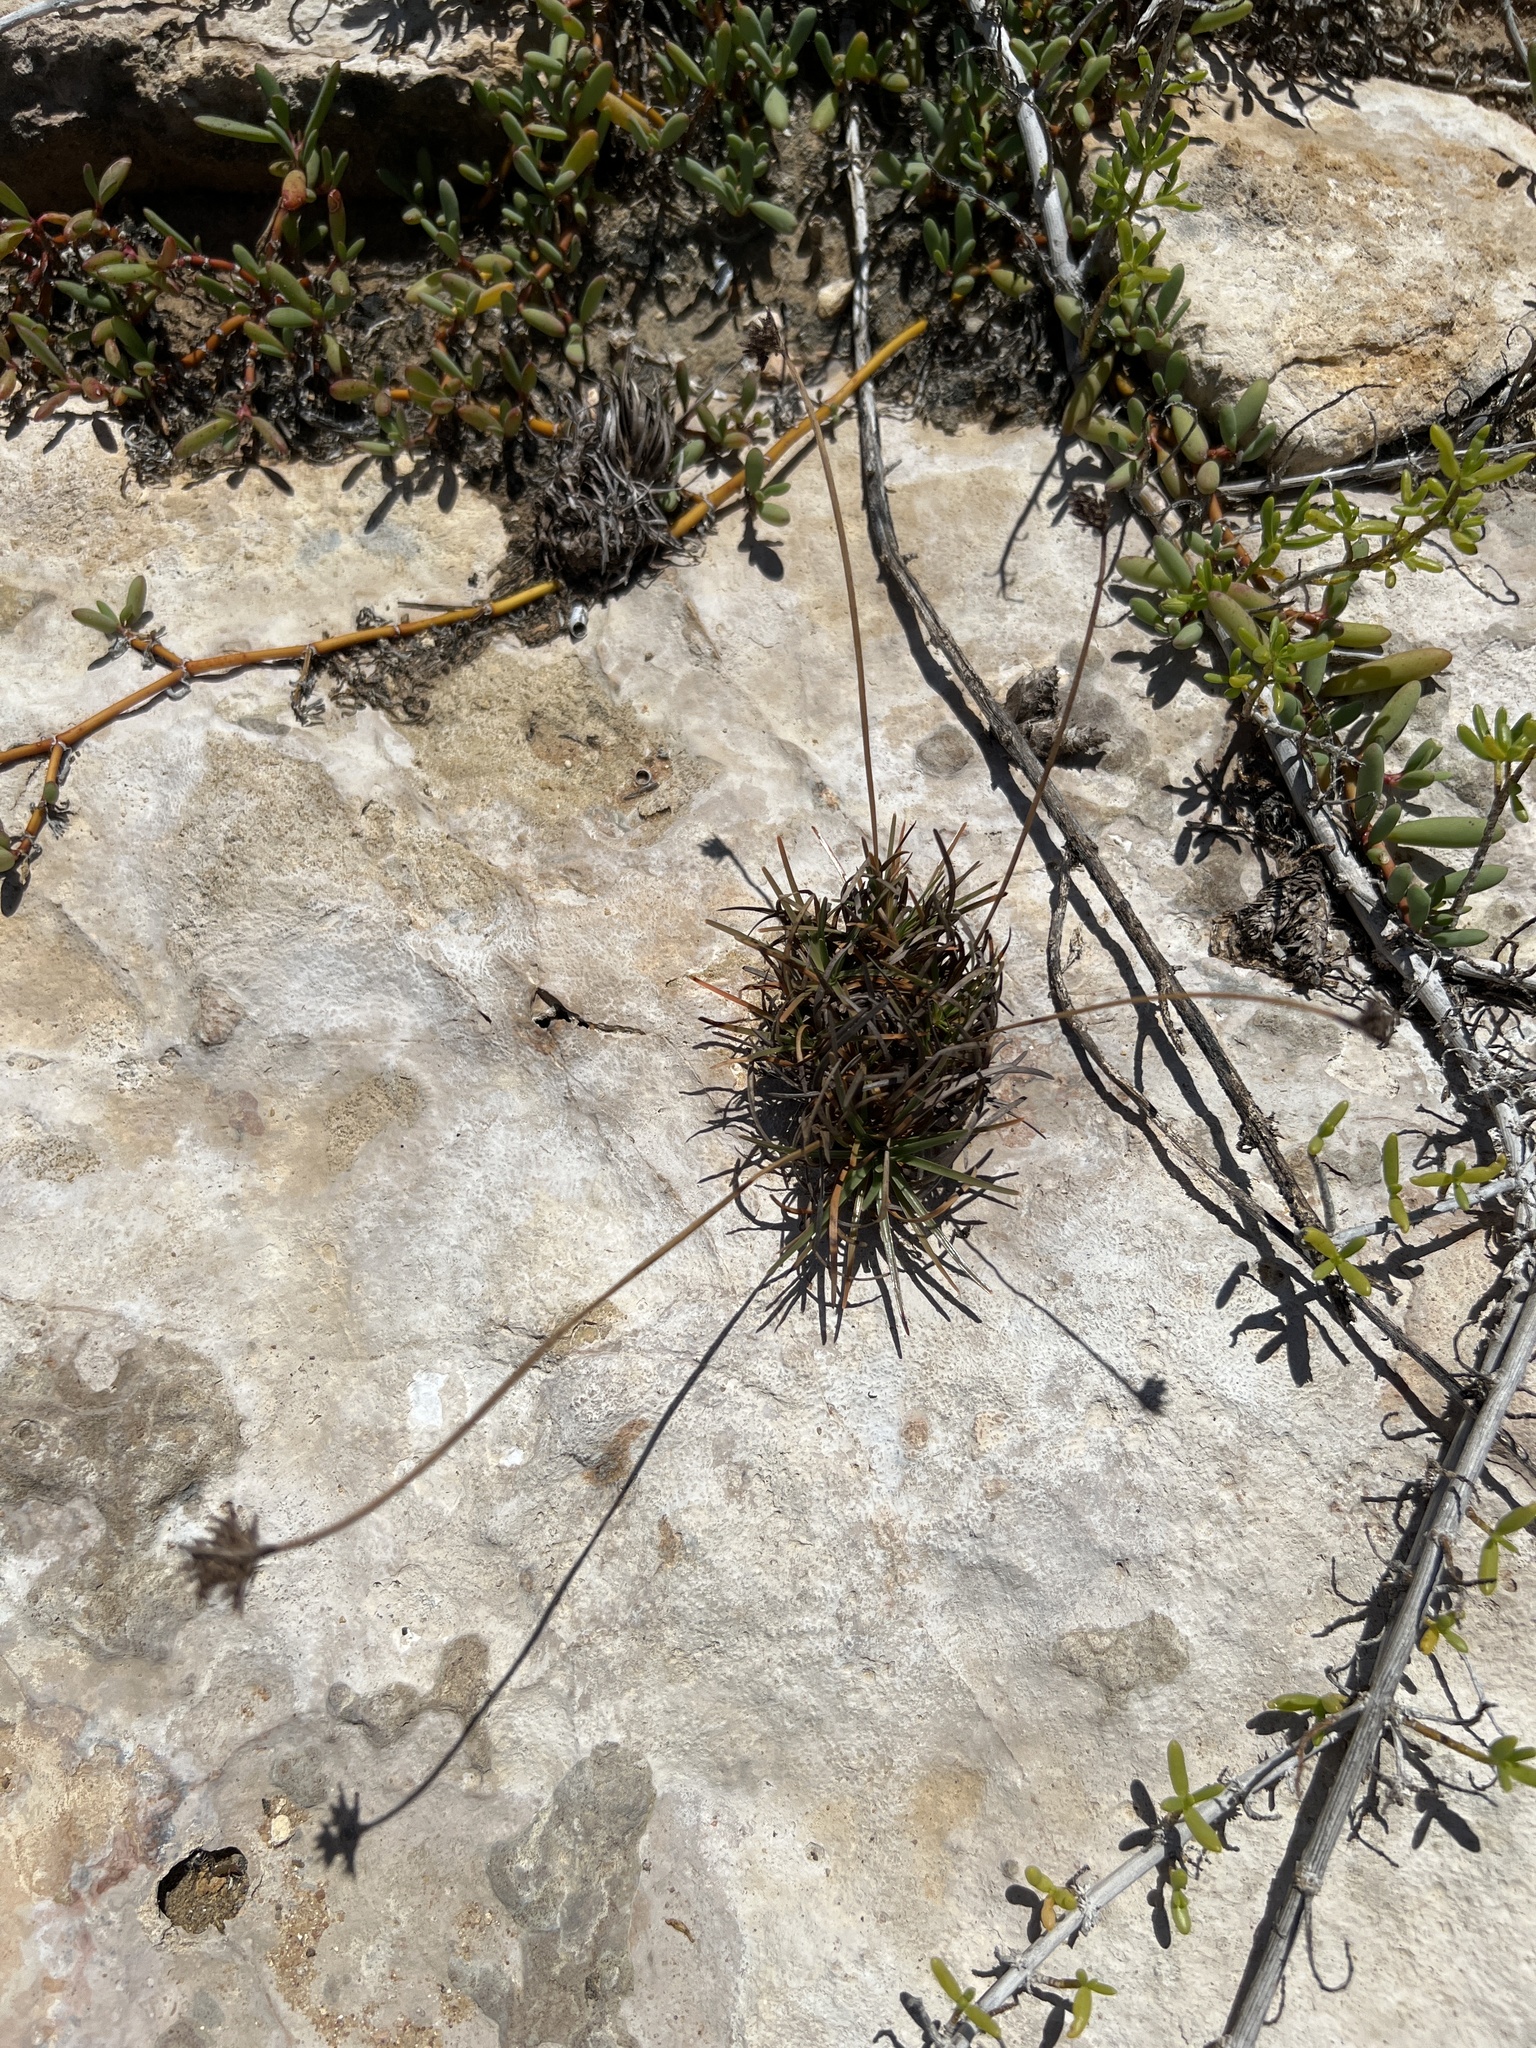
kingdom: Plantae
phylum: Tracheophyta
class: Liliopsida
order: Poales
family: Cyperaceae
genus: Fimbristylis
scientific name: Fimbristylis cymosa
